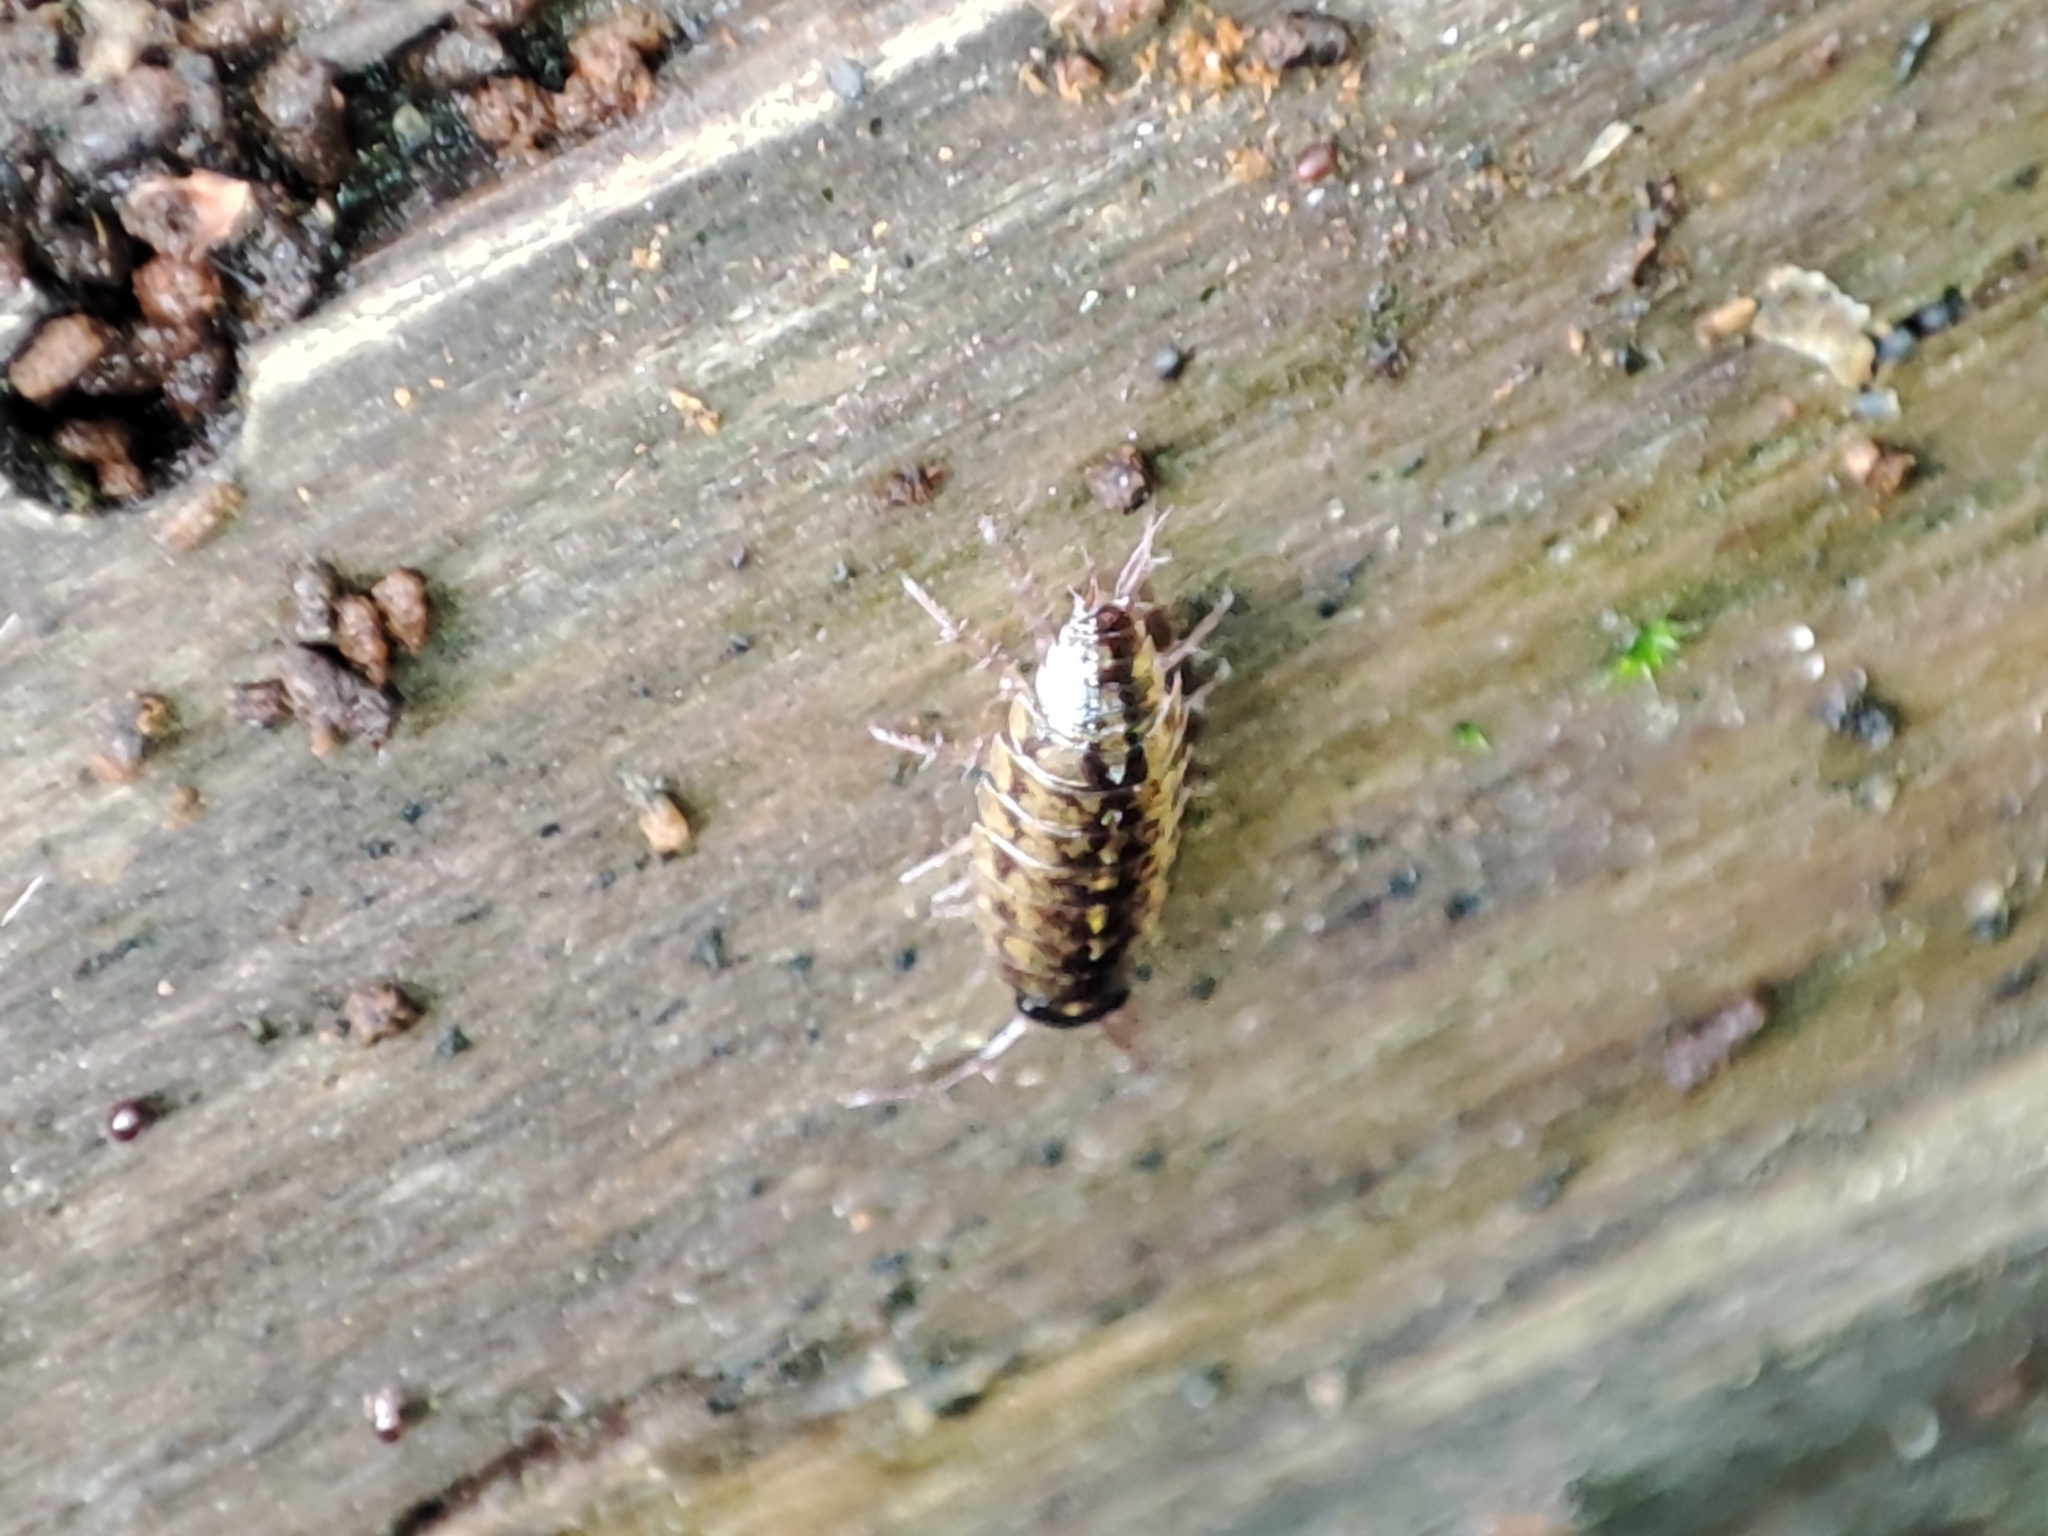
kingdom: Animalia
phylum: Arthropoda
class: Malacostraca
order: Isopoda
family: Ligiidae
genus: Ligidium
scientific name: Ligidium hypnorum
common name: Moss slater
